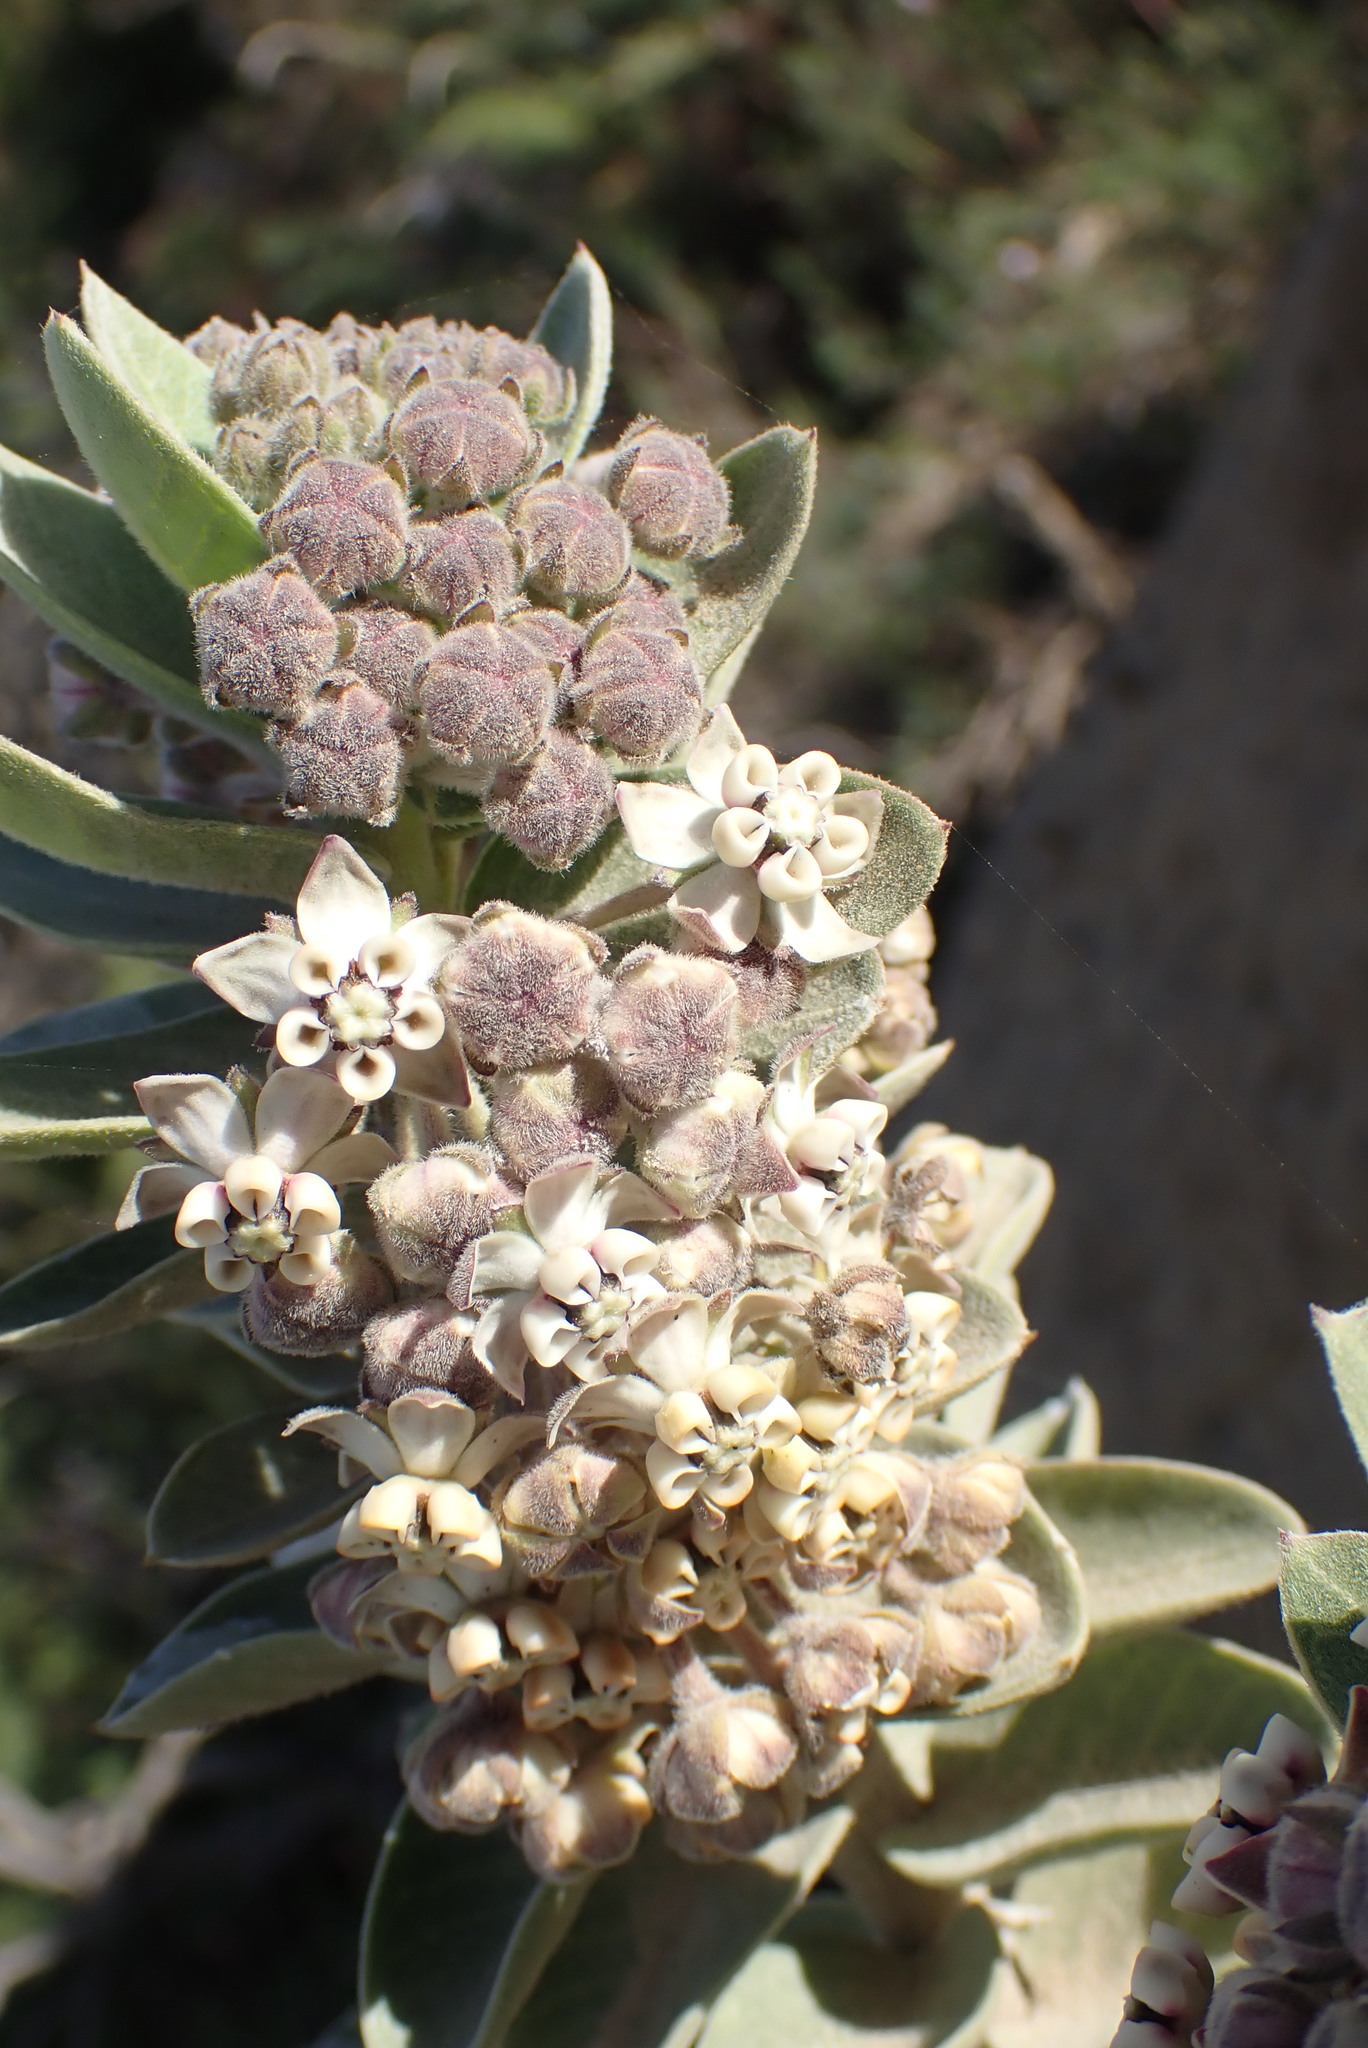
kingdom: Plantae
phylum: Tracheophyta
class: Magnoliopsida
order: Gentianales
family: Apocynaceae
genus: Gomphocarpus
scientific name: Gomphocarpus cancellatus
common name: Wild cotton
